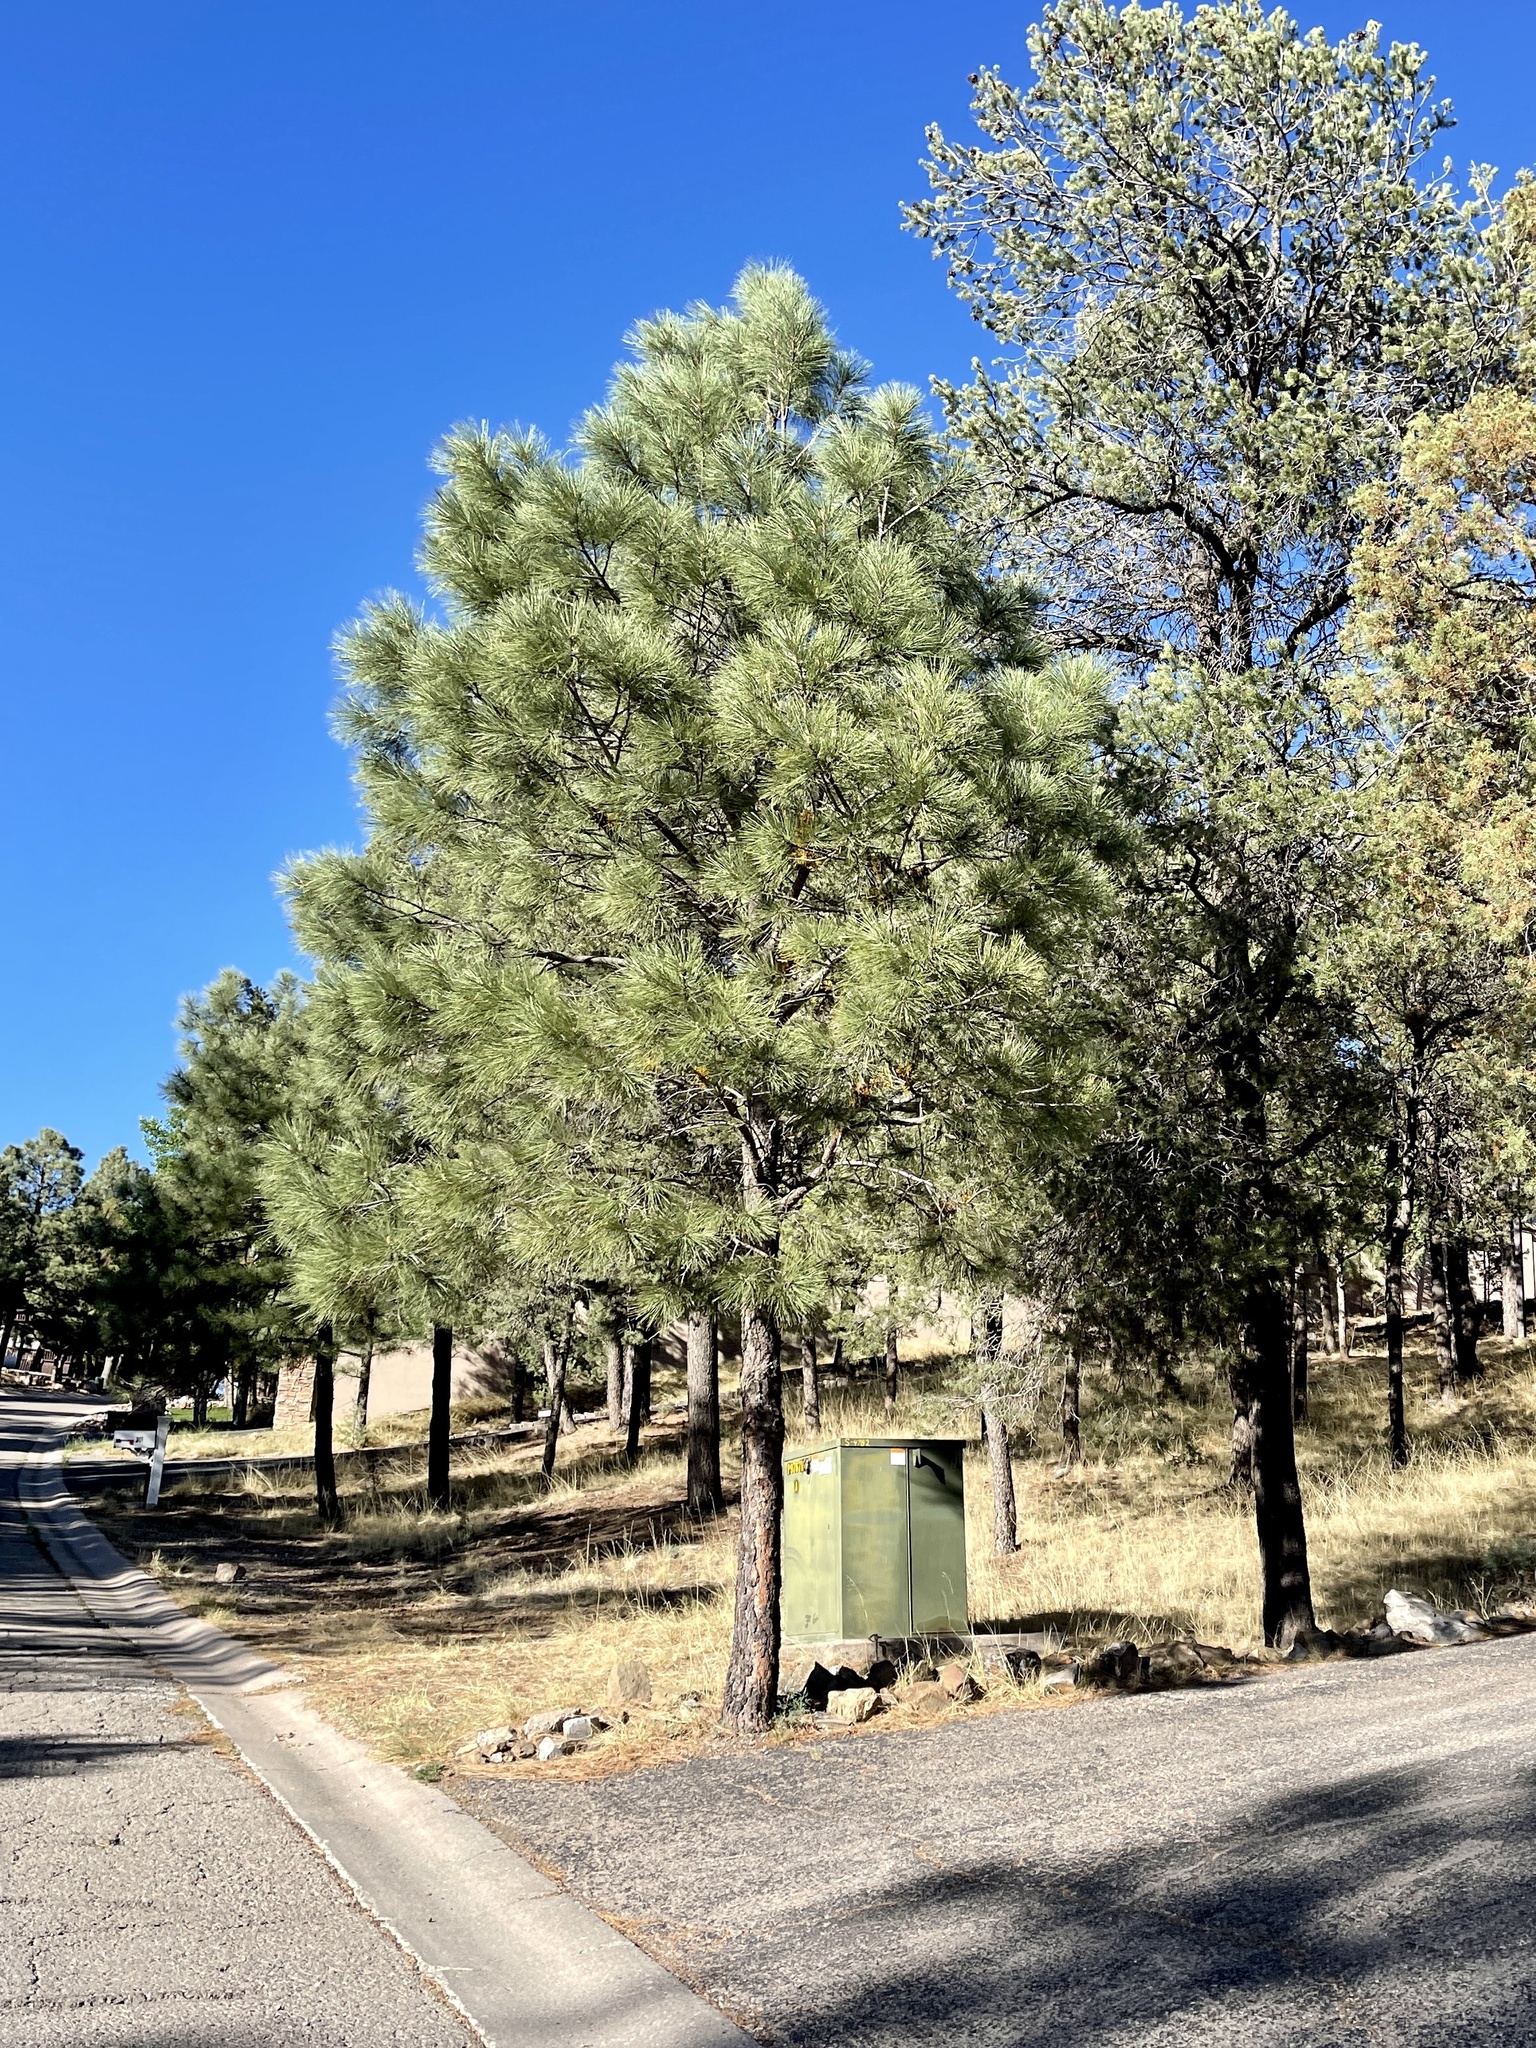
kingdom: Plantae
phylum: Tracheophyta
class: Pinopsida
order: Pinales
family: Pinaceae
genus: Pinus
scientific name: Pinus ponderosa
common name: Western yellow-pine
